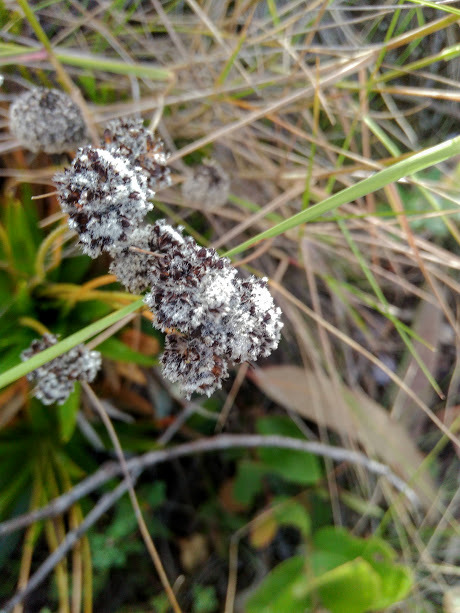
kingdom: Plantae
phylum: Tracheophyta
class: Liliopsida
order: Poales
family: Eriocaulaceae
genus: Paepalanthus
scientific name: Paepalanthus alpinus
